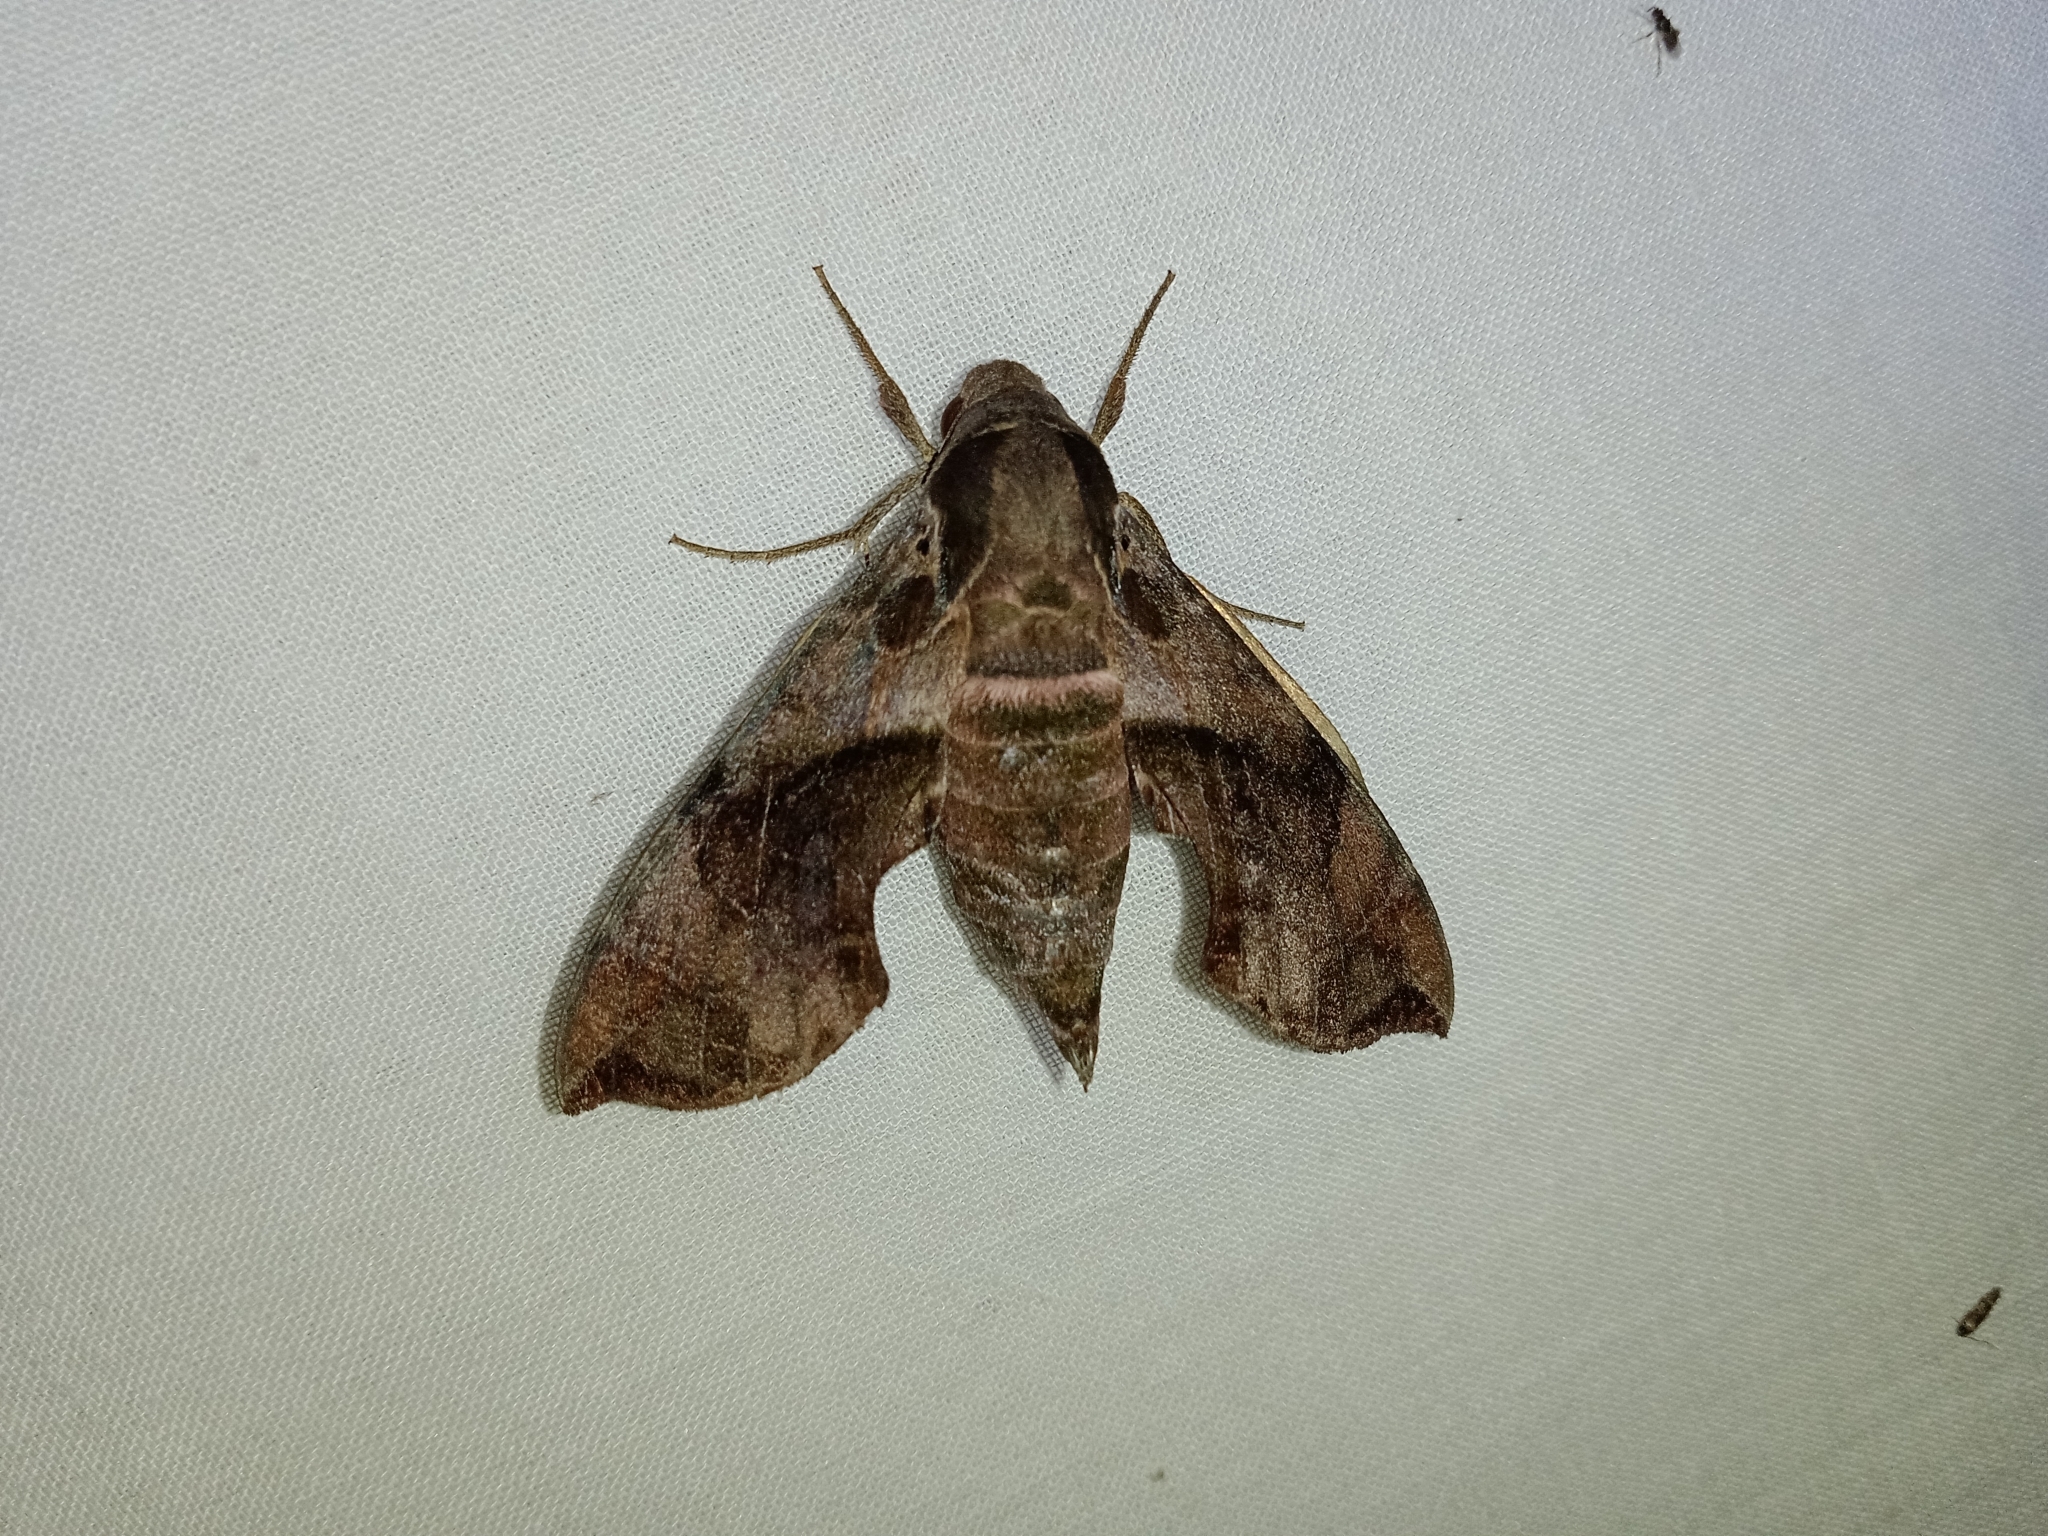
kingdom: Animalia
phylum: Arthropoda
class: Insecta
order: Lepidoptera
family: Sphingidae
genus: Daphnis
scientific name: Daphnis minima
